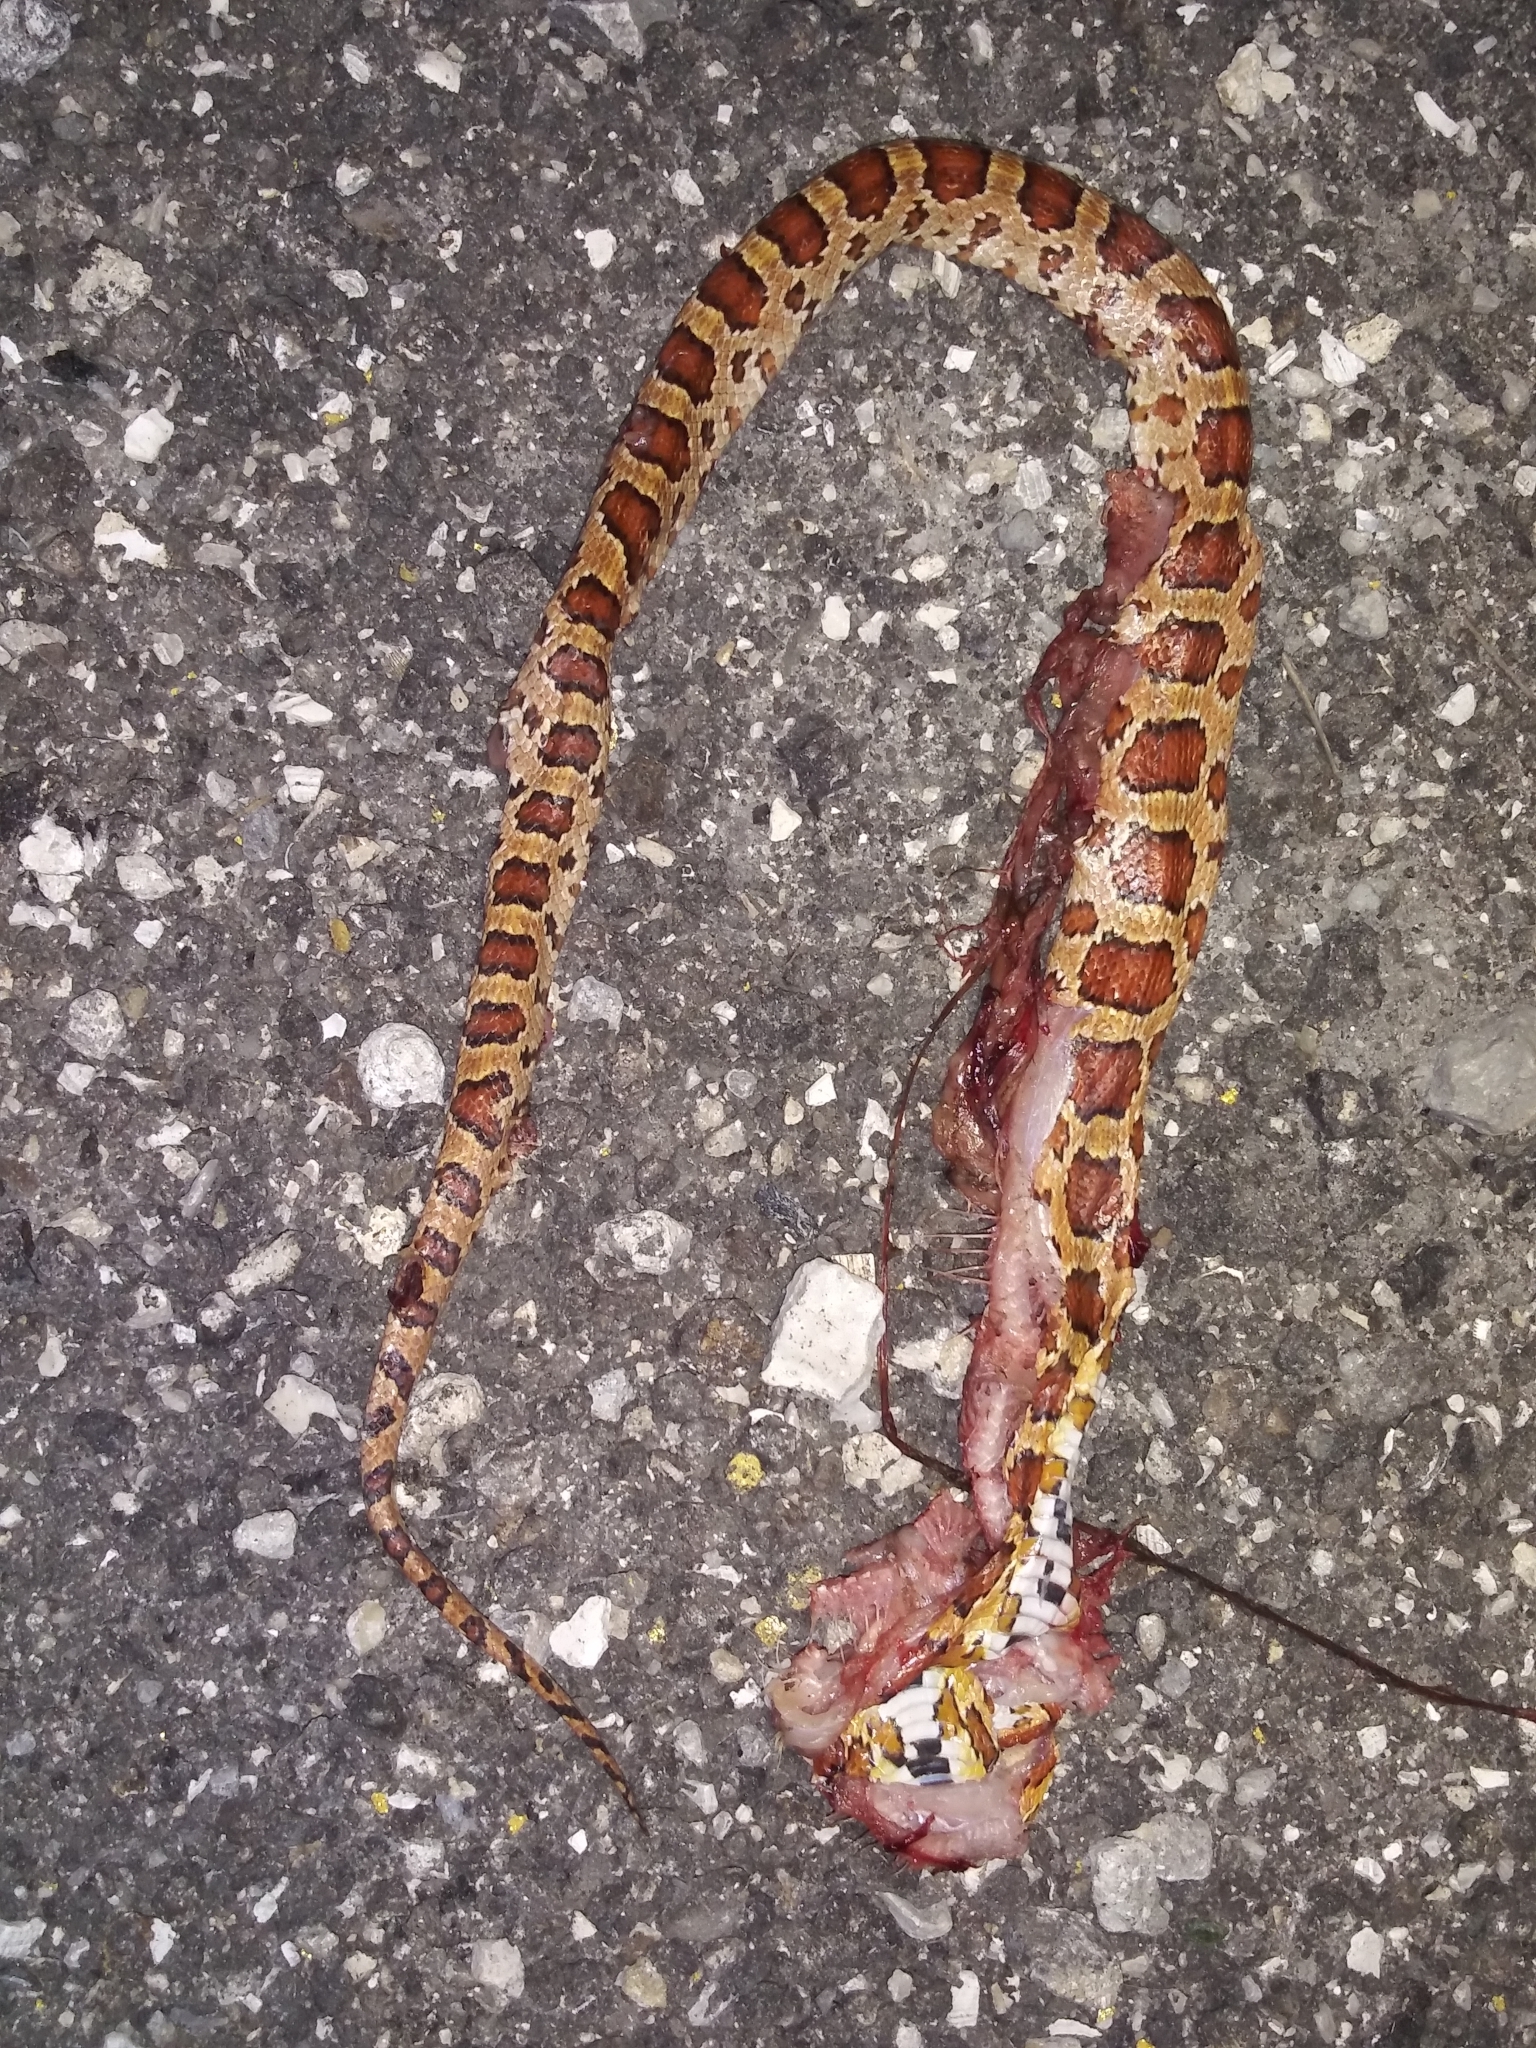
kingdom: Animalia
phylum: Chordata
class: Squamata
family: Colubridae
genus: Pantherophis
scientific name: Pantherophis guttatus
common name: Red cornsnake
